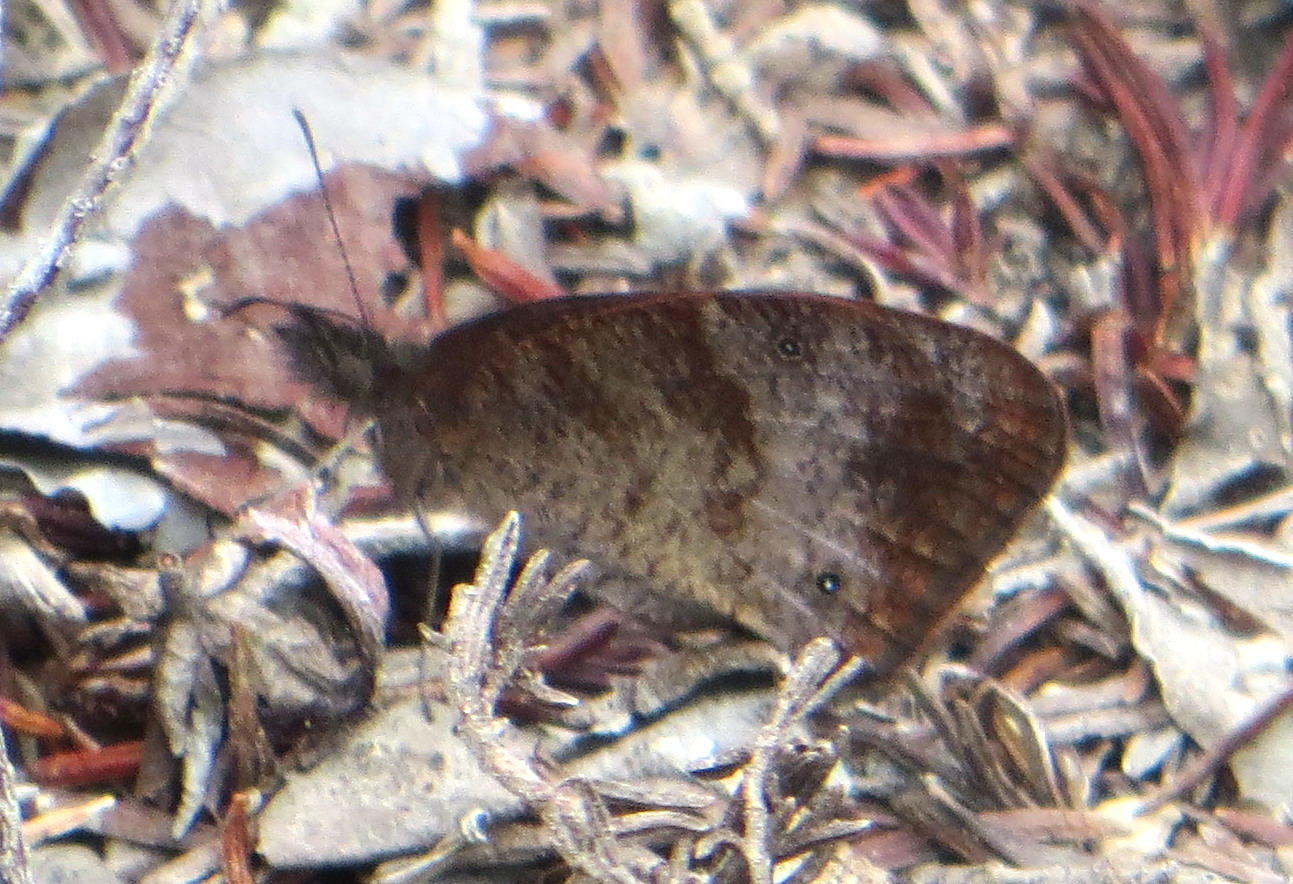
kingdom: Animalia
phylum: Arthropoda
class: Insecta
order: Lepidoptera
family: Nymphalidae
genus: Cassionympha
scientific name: Cassionympha cassius
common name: Rainforest brown
